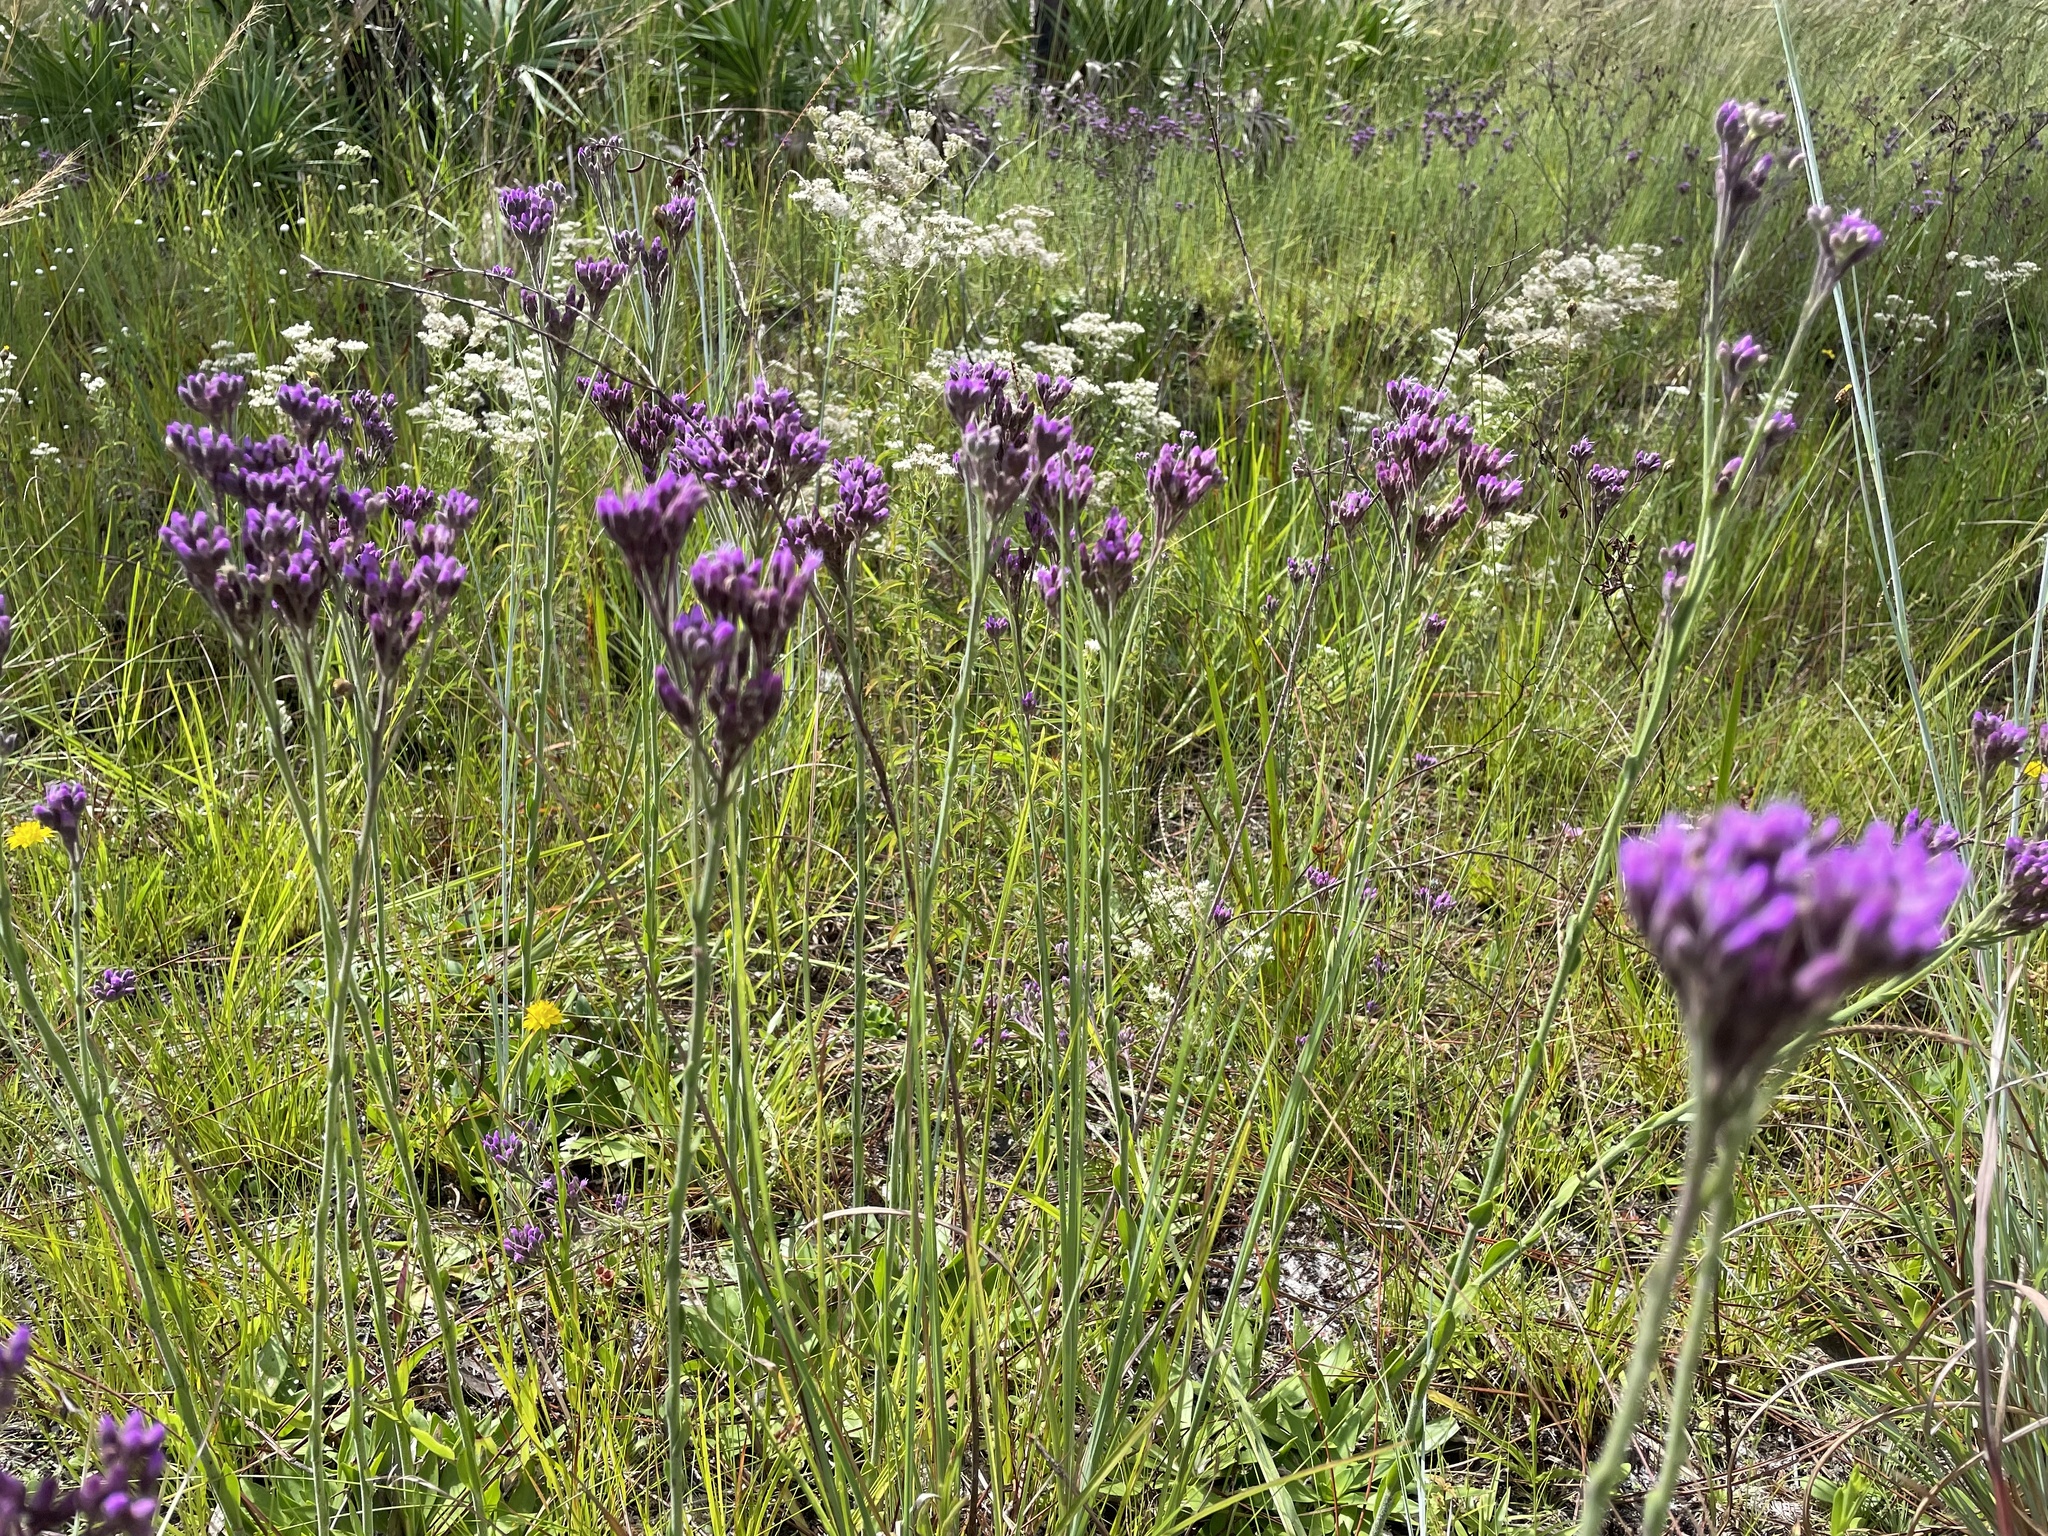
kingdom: Plantae
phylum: Tracheophyta
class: Magnoliopsida
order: Asterales
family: Asteraceae
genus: Carphephorus
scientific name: Carphephorus carnosus
